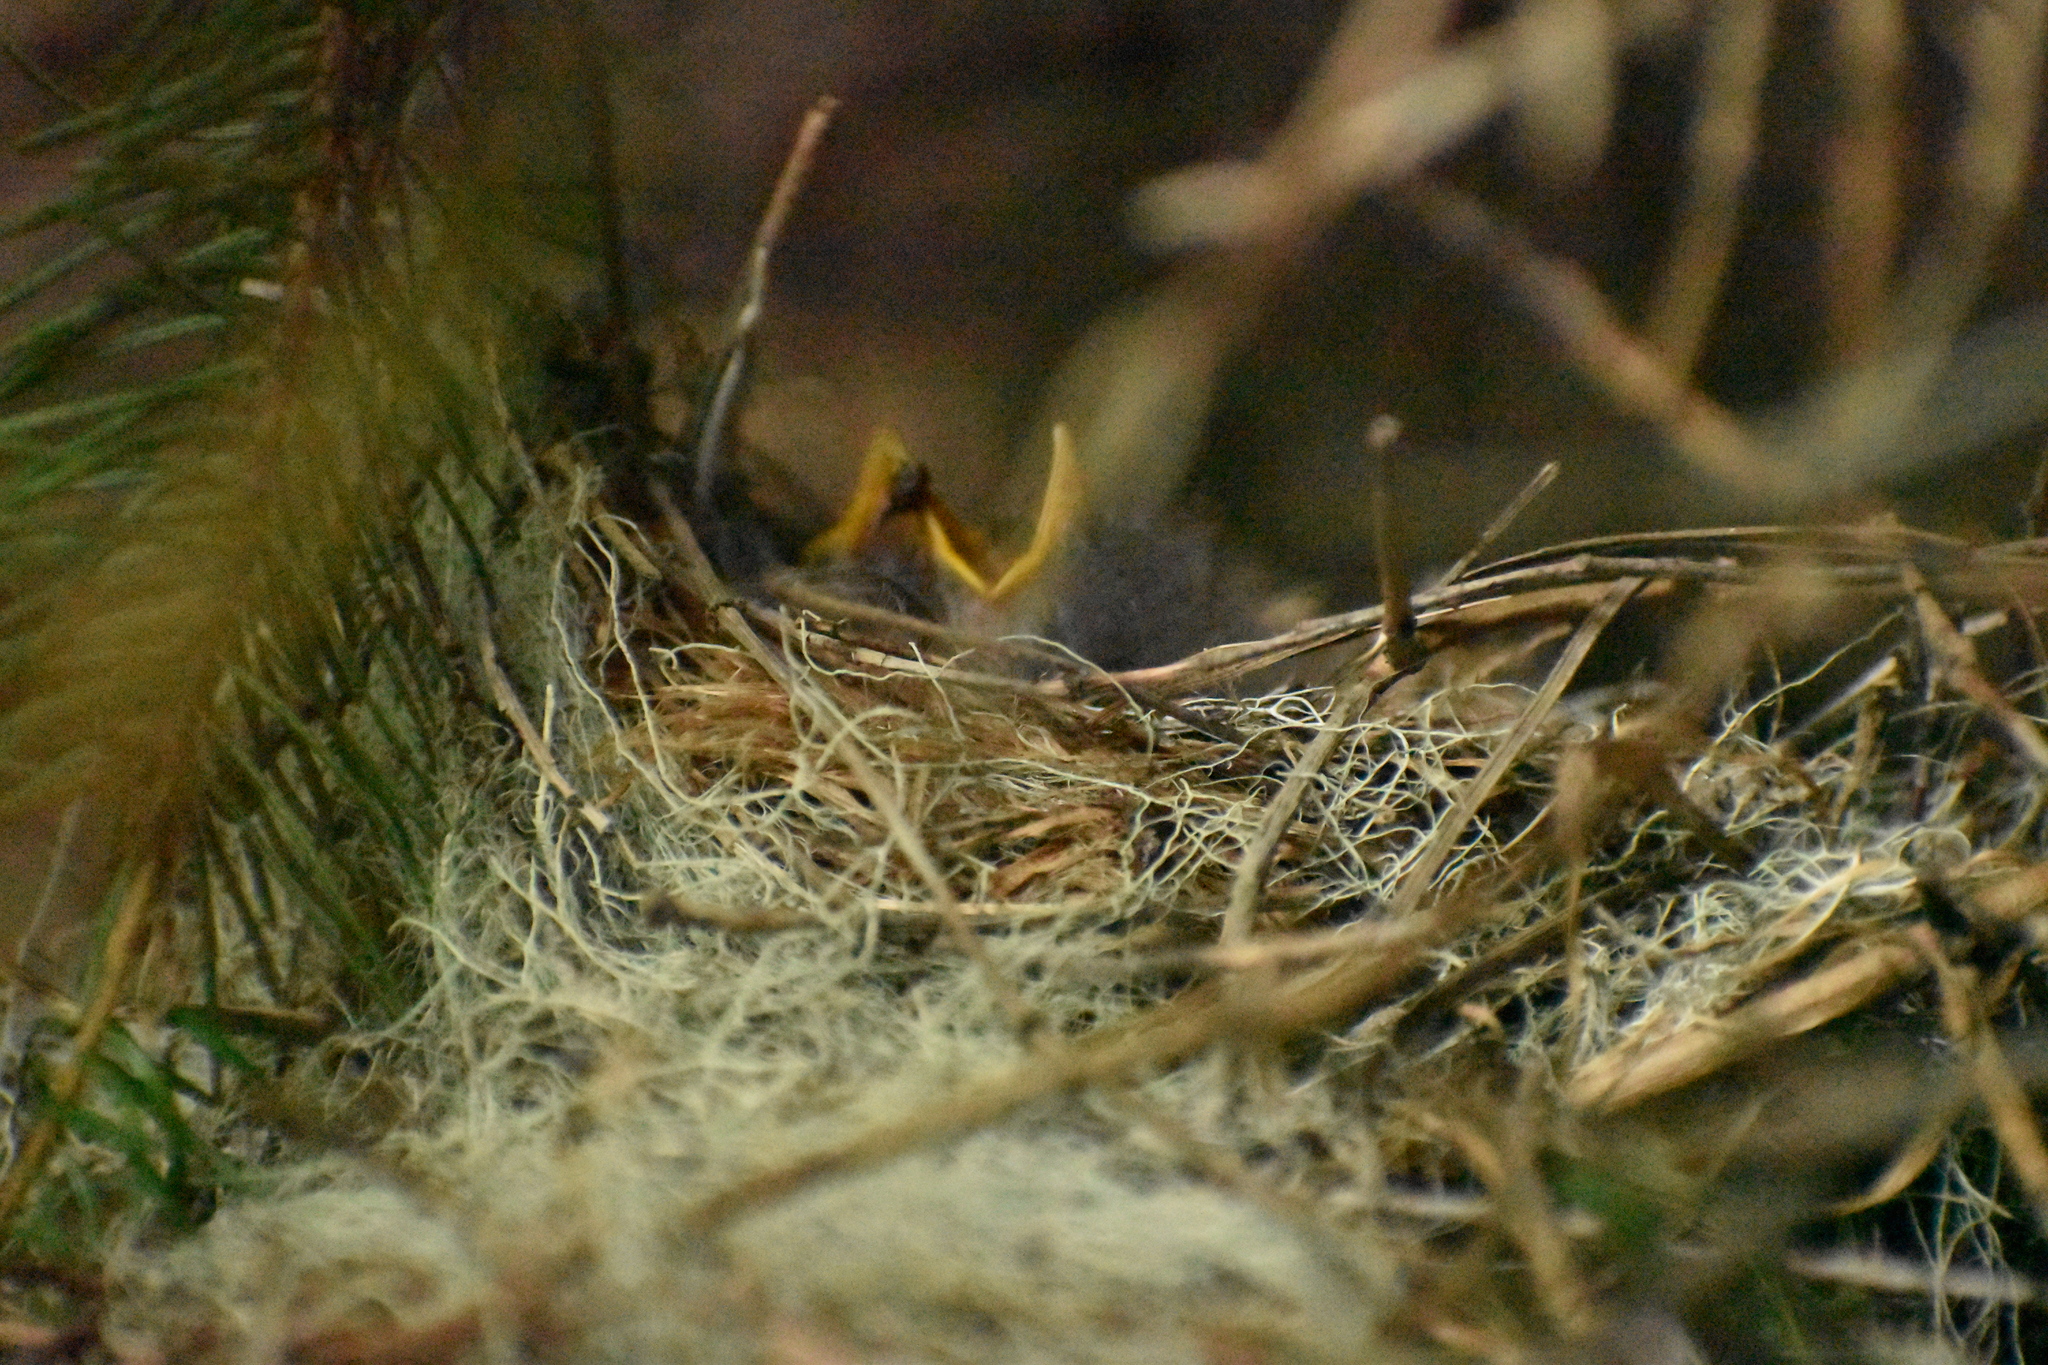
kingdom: Animalia
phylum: Chordata
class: Aves
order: Passeriformes
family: Tyrannidae
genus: Elaenia
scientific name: Elaenia albiceps
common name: White-crested elaenia
